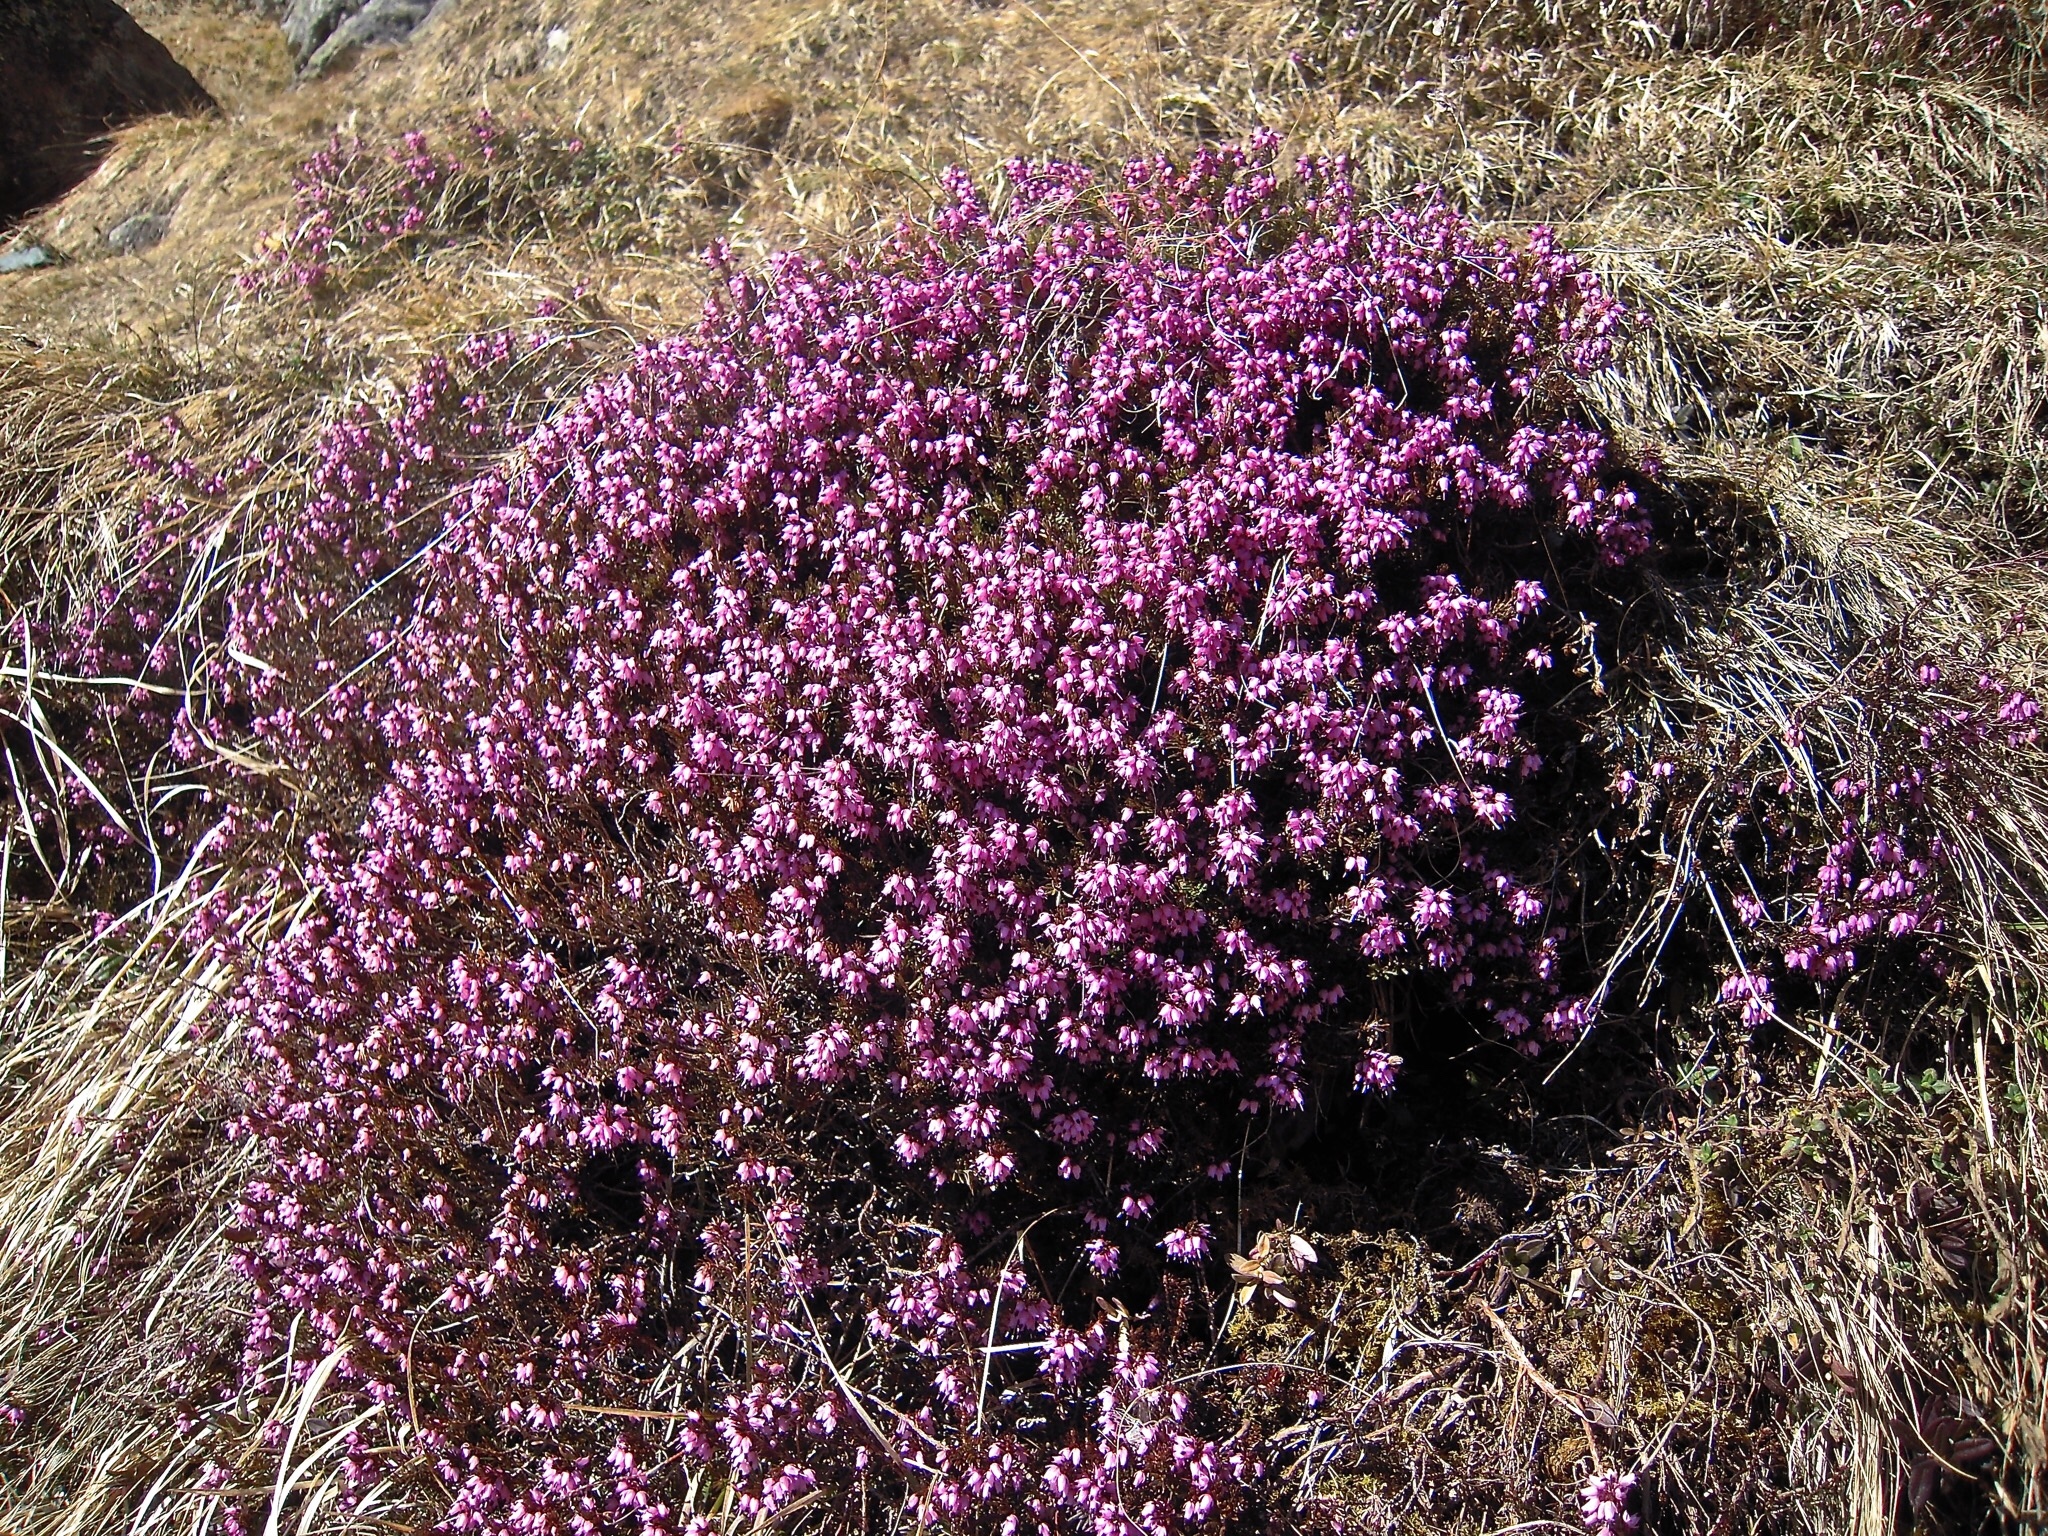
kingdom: Plantae
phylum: Tracheophyta
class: Magnoliopsida
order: Ericales
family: Ericaceae
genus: Erica
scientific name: Erica carnea
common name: Winter heath
